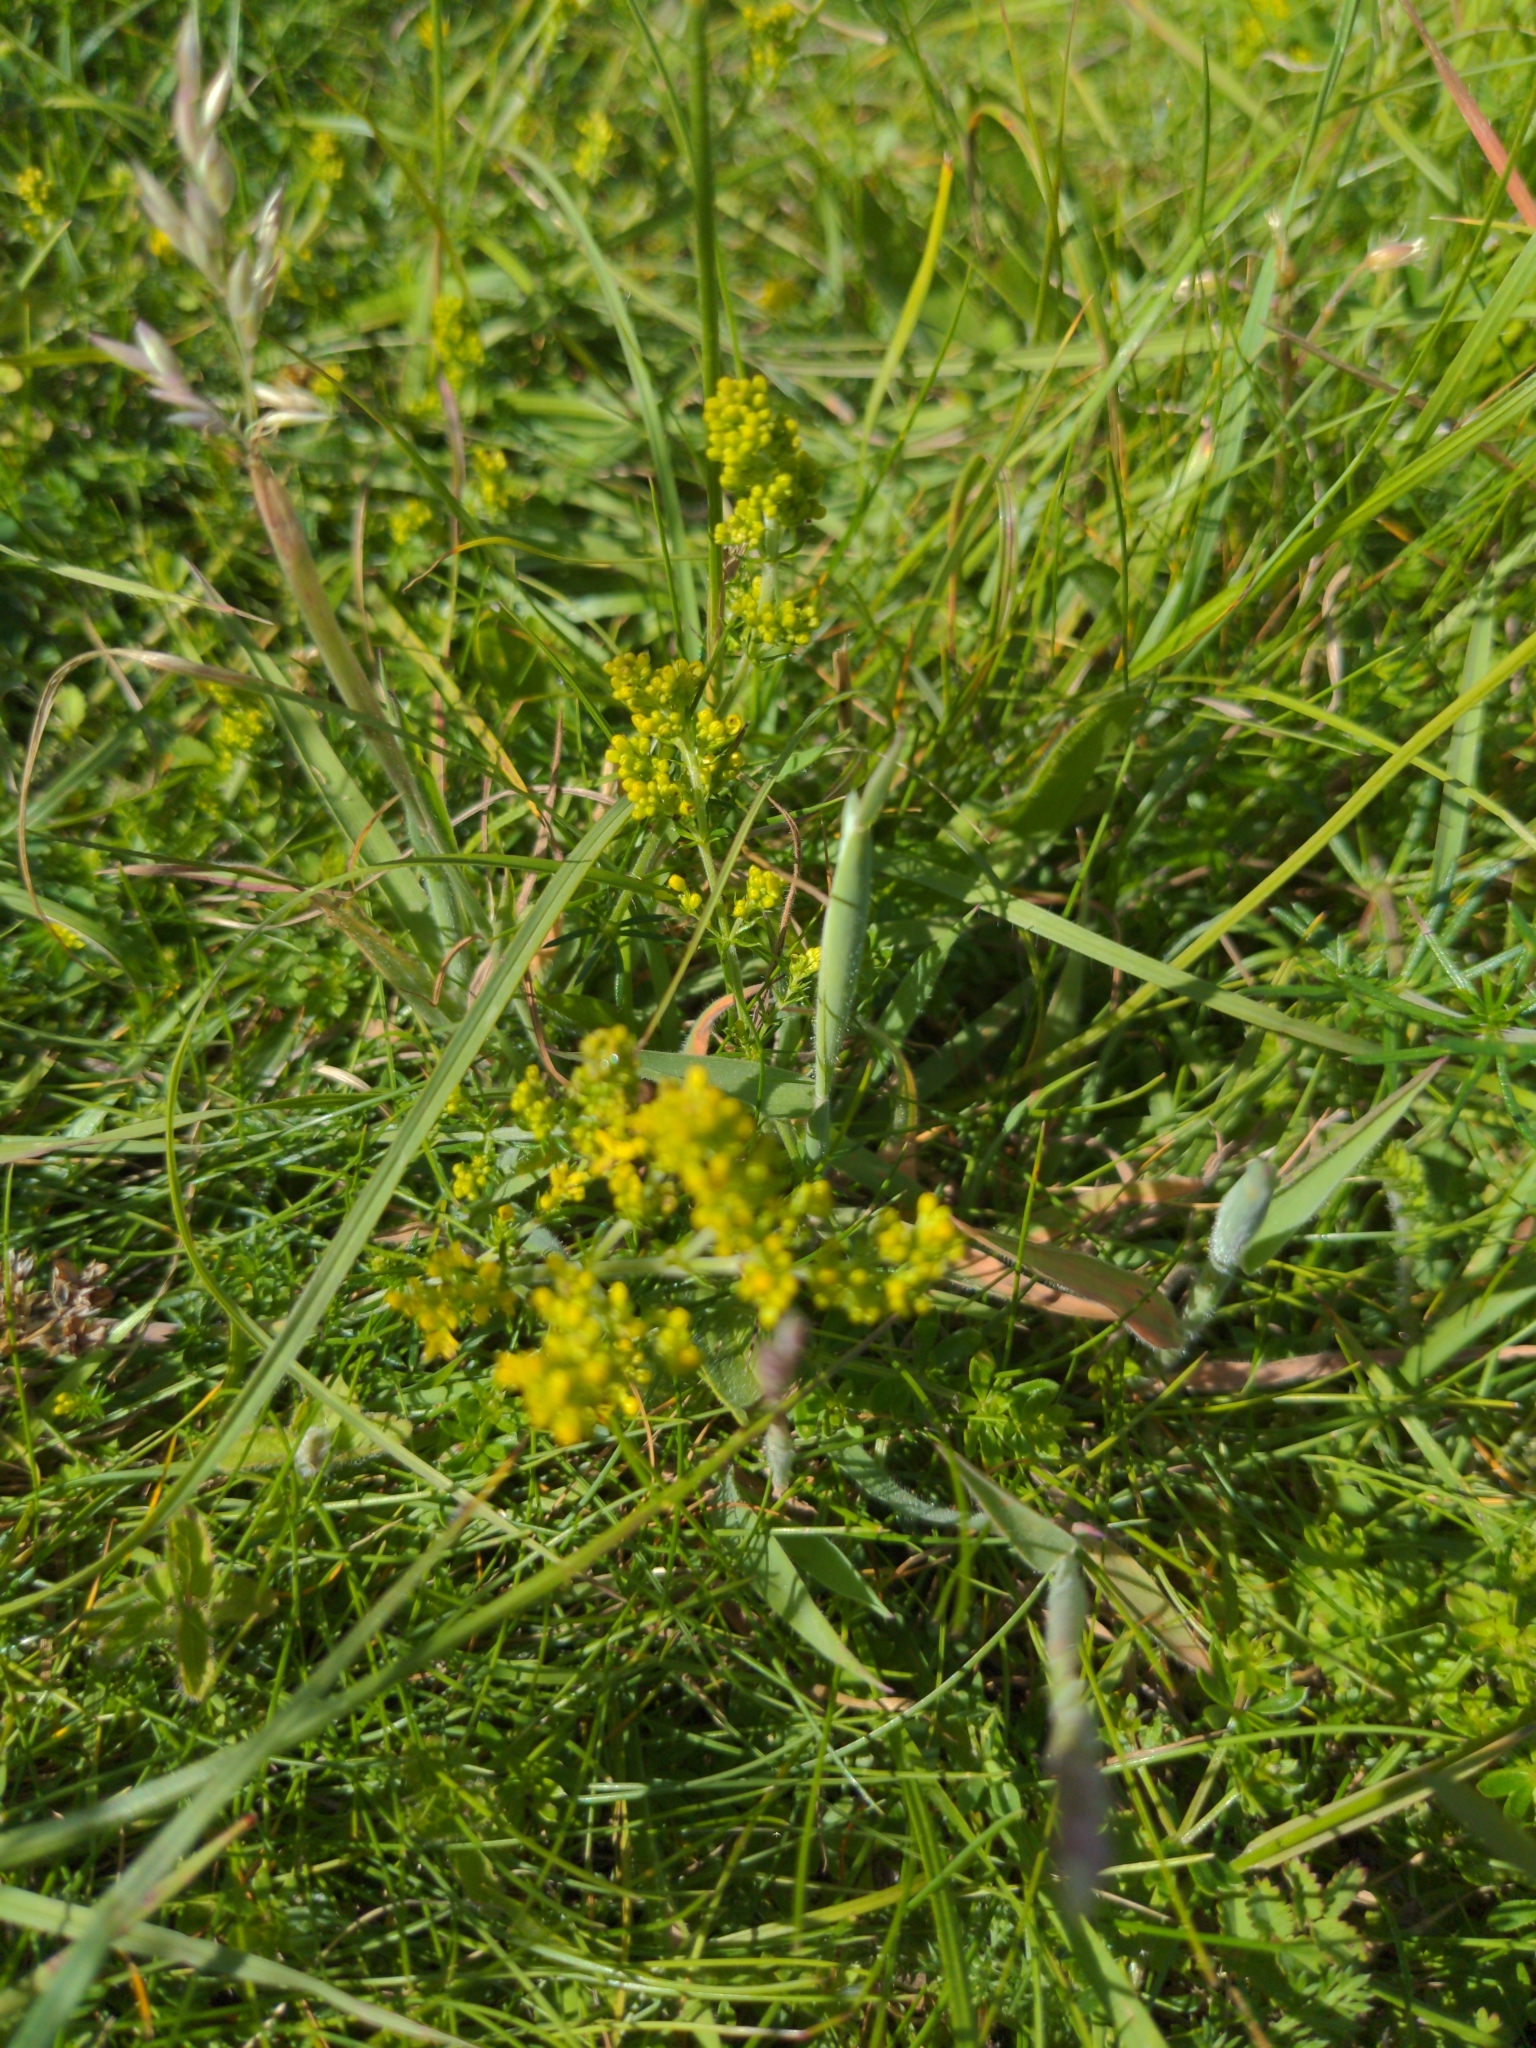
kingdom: Plantae
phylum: Tracheophyta
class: Magnoliopsida
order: Gentianales
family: Rubiaceae
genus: Galium
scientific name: Galium verum
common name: Lady's bedstraw
